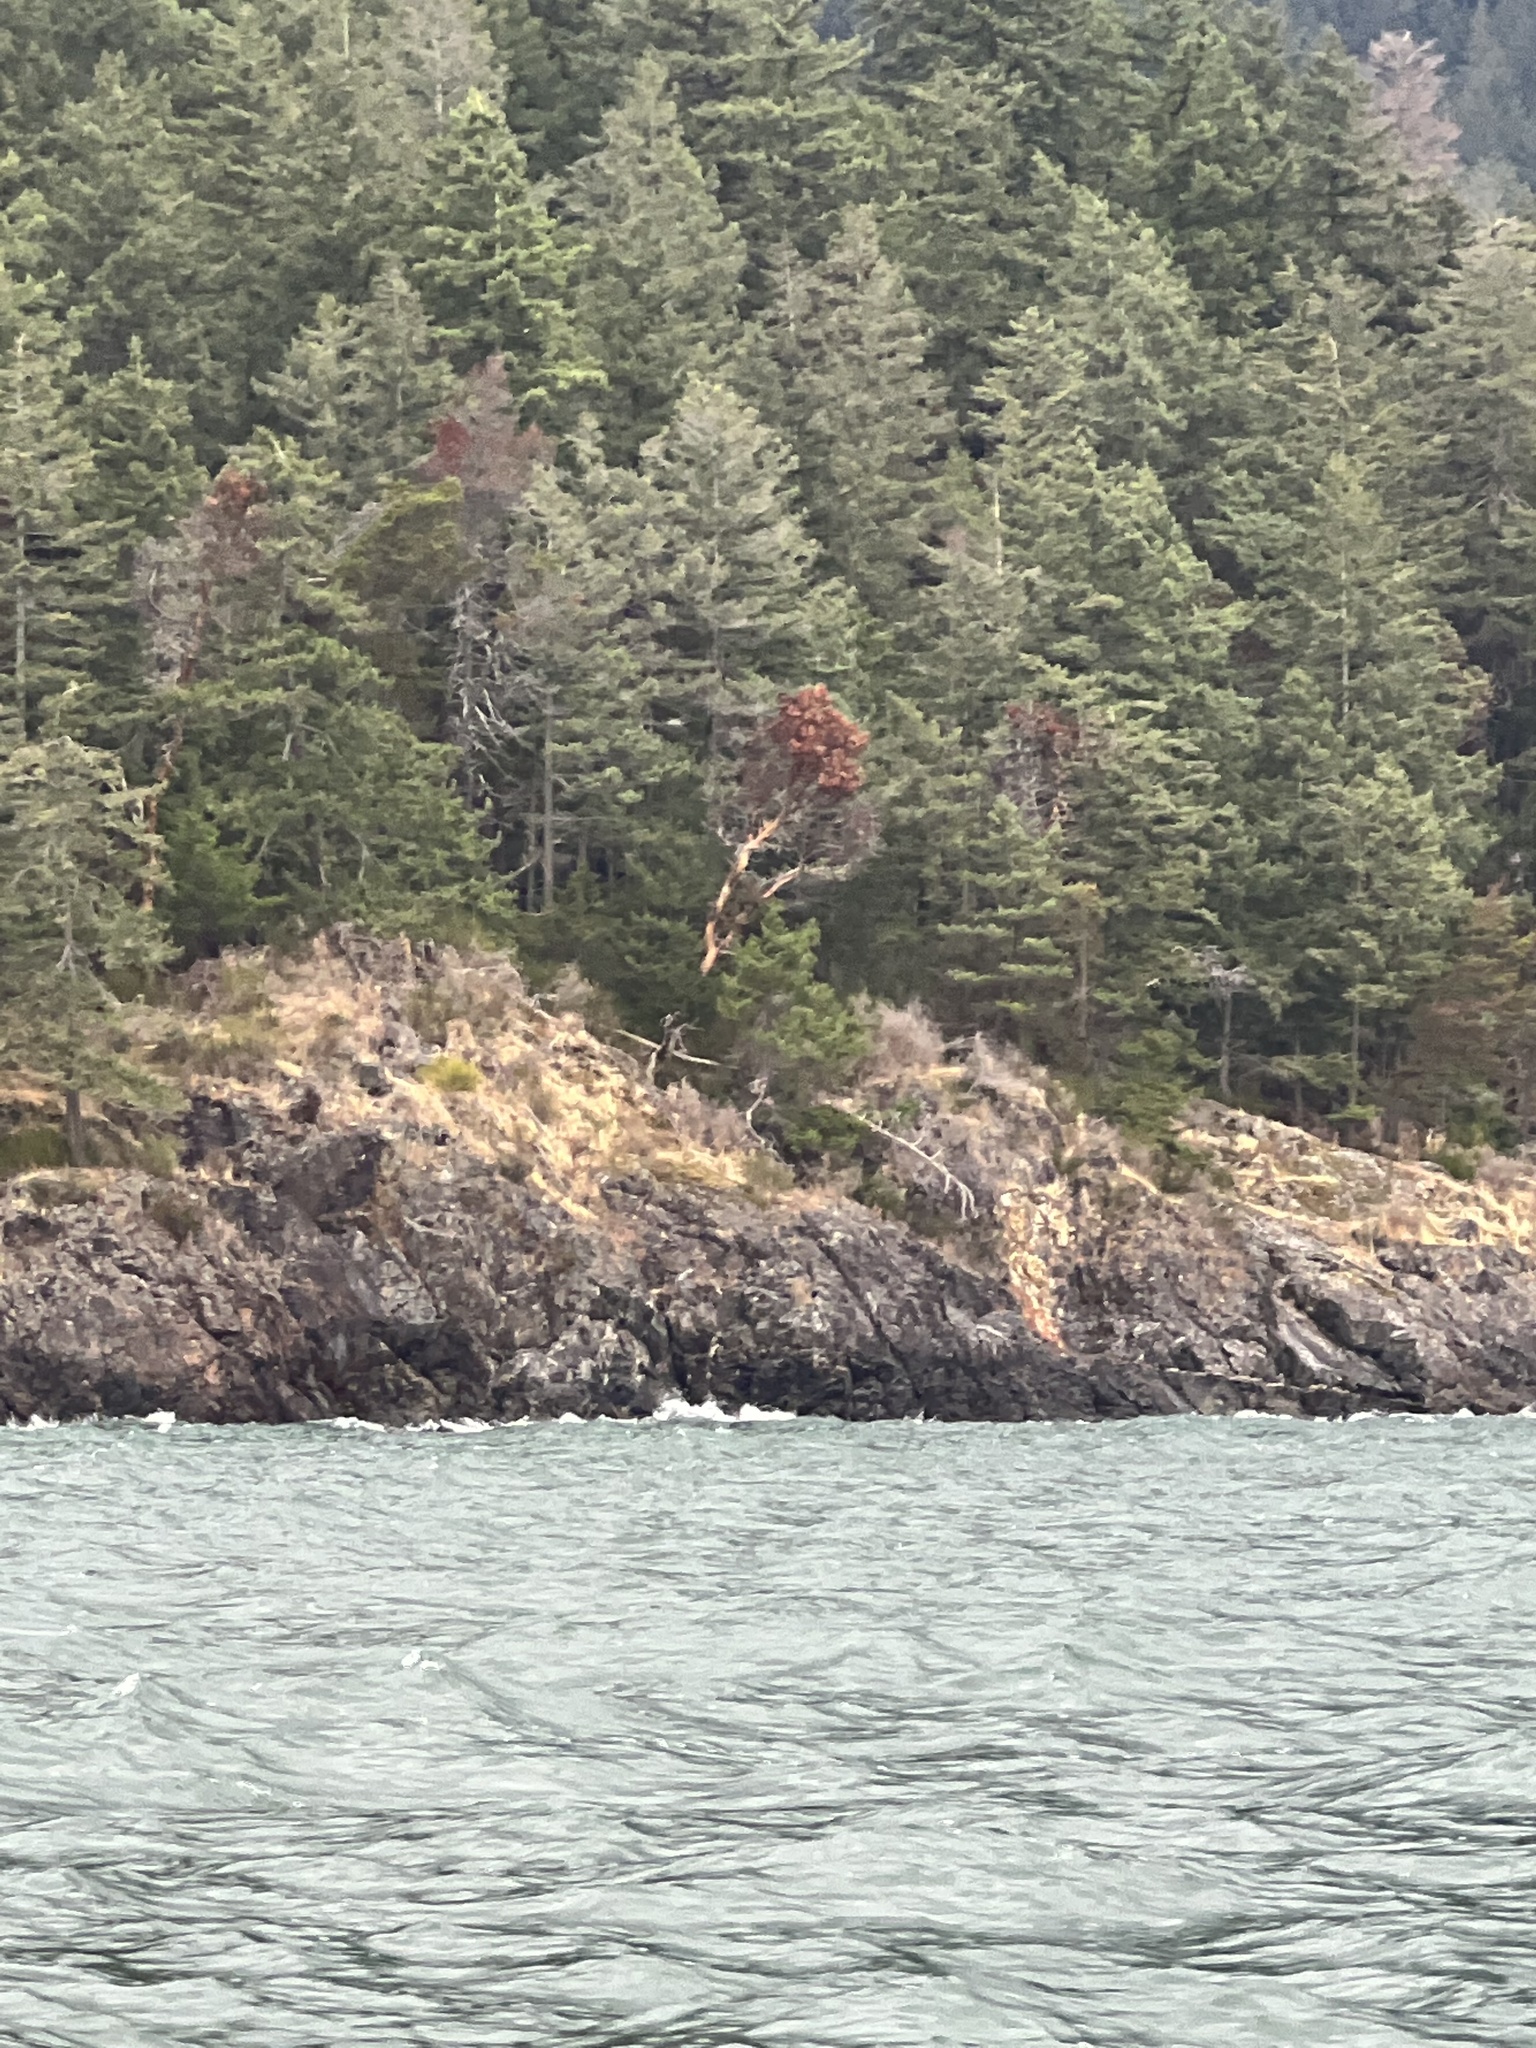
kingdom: Plantae
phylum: Tracheophyta
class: Magnoliopsida
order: Ericales
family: Ericaceae
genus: Arbutus
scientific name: Arbutus menziesii
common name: Pacific madrone
